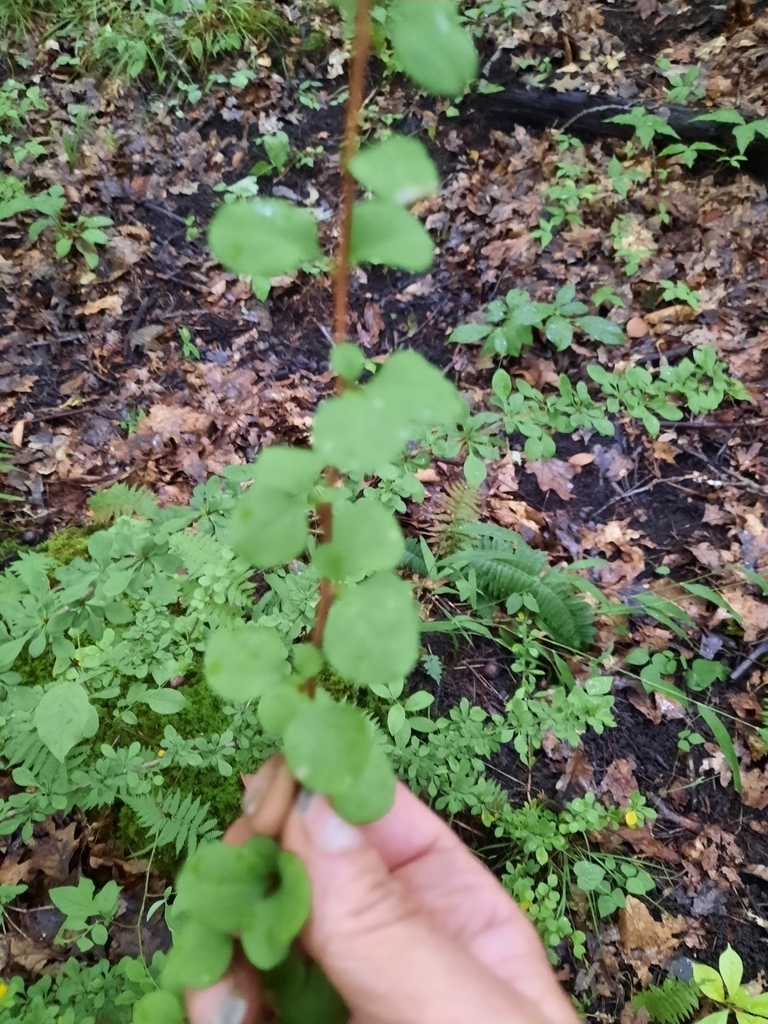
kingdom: Plantae
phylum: Tracheophyta
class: Magnoliopsida
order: Ranunculales
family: Berberidaceae
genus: Berberis
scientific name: Berberis thunbergii
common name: Japanese barberry
